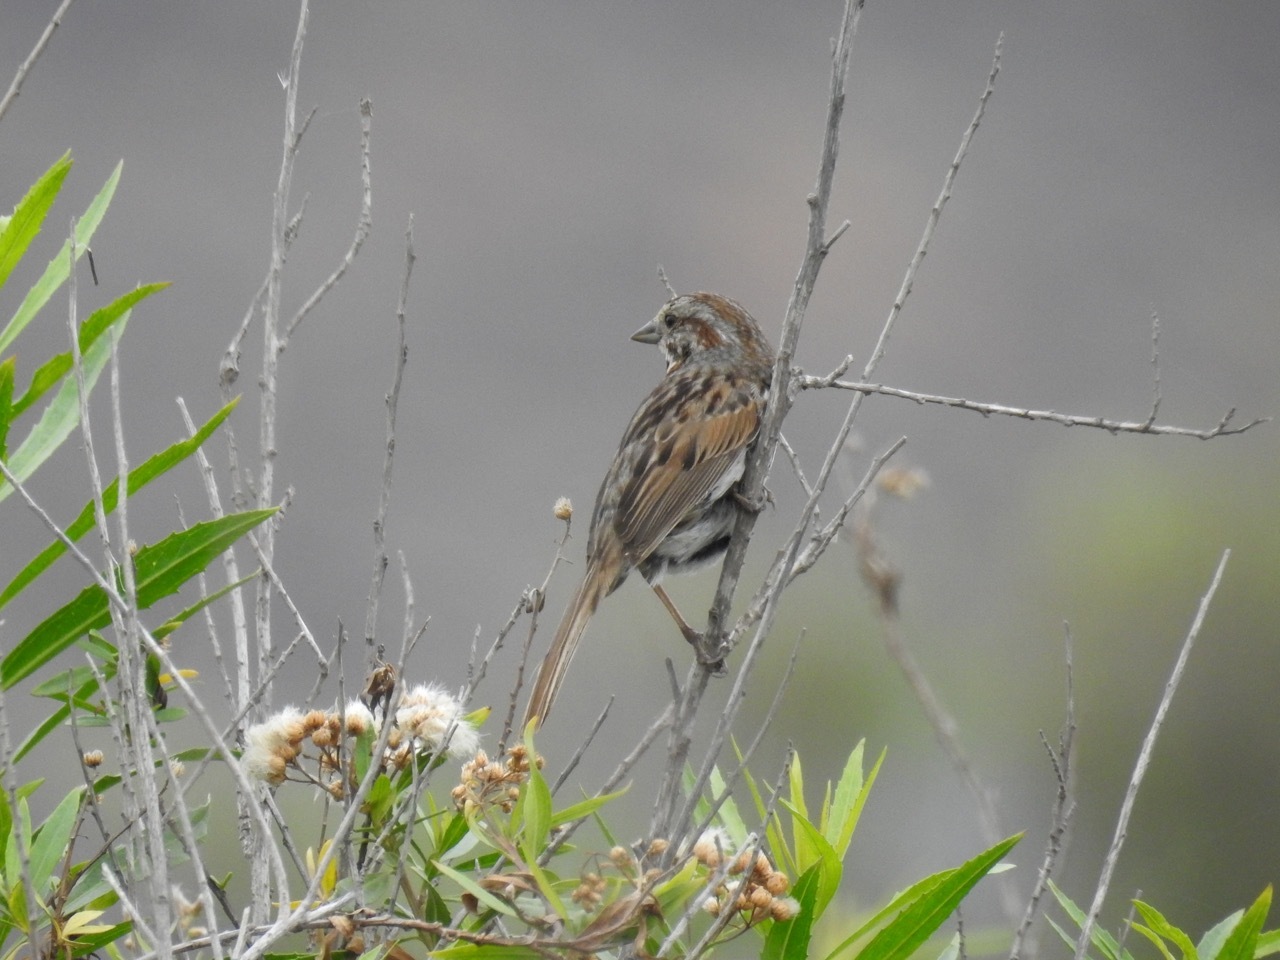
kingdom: Animalia
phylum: Chordata
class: Aves
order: Passeriformes
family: Passerellidae
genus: Melospiza
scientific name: Melospiza melodia
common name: Song sparrow
